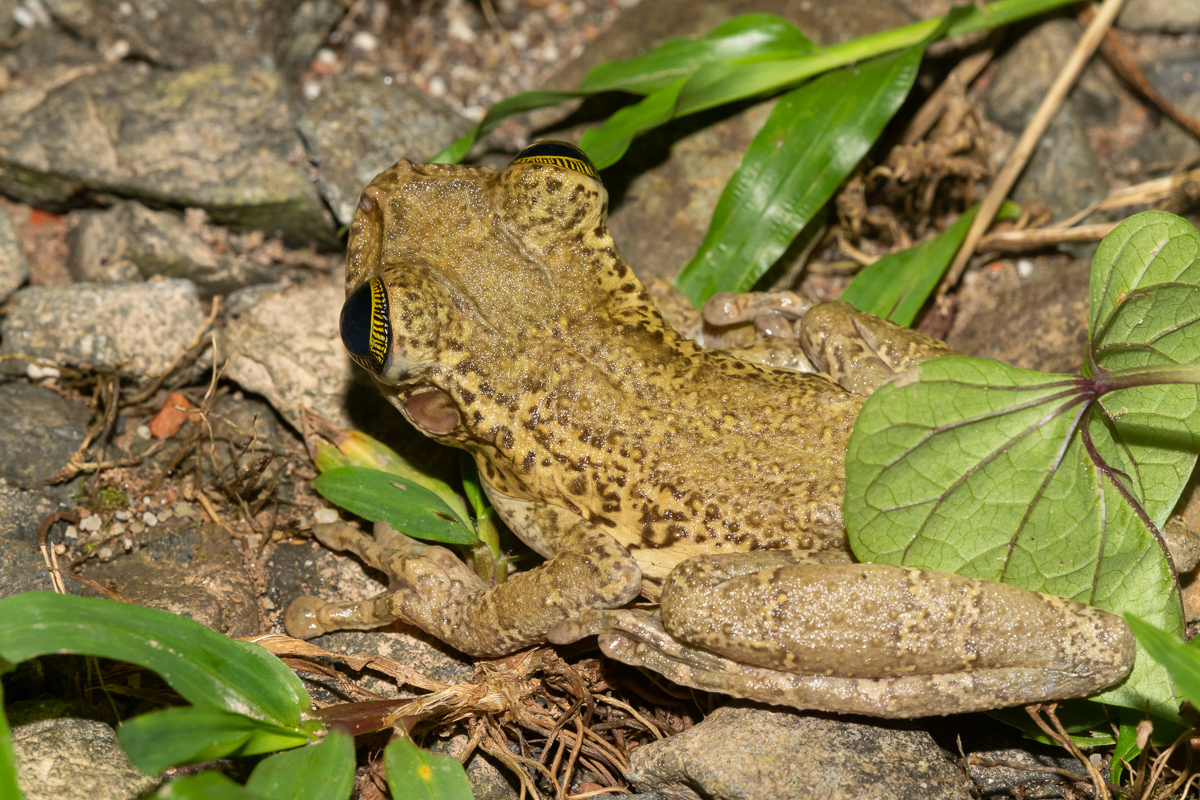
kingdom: Animalia
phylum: Chordata
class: Amphibia
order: Anura
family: Hylidae
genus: Osteocephalus
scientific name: Osteocephalus taurinus
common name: Manaus slender-legged treefrog
